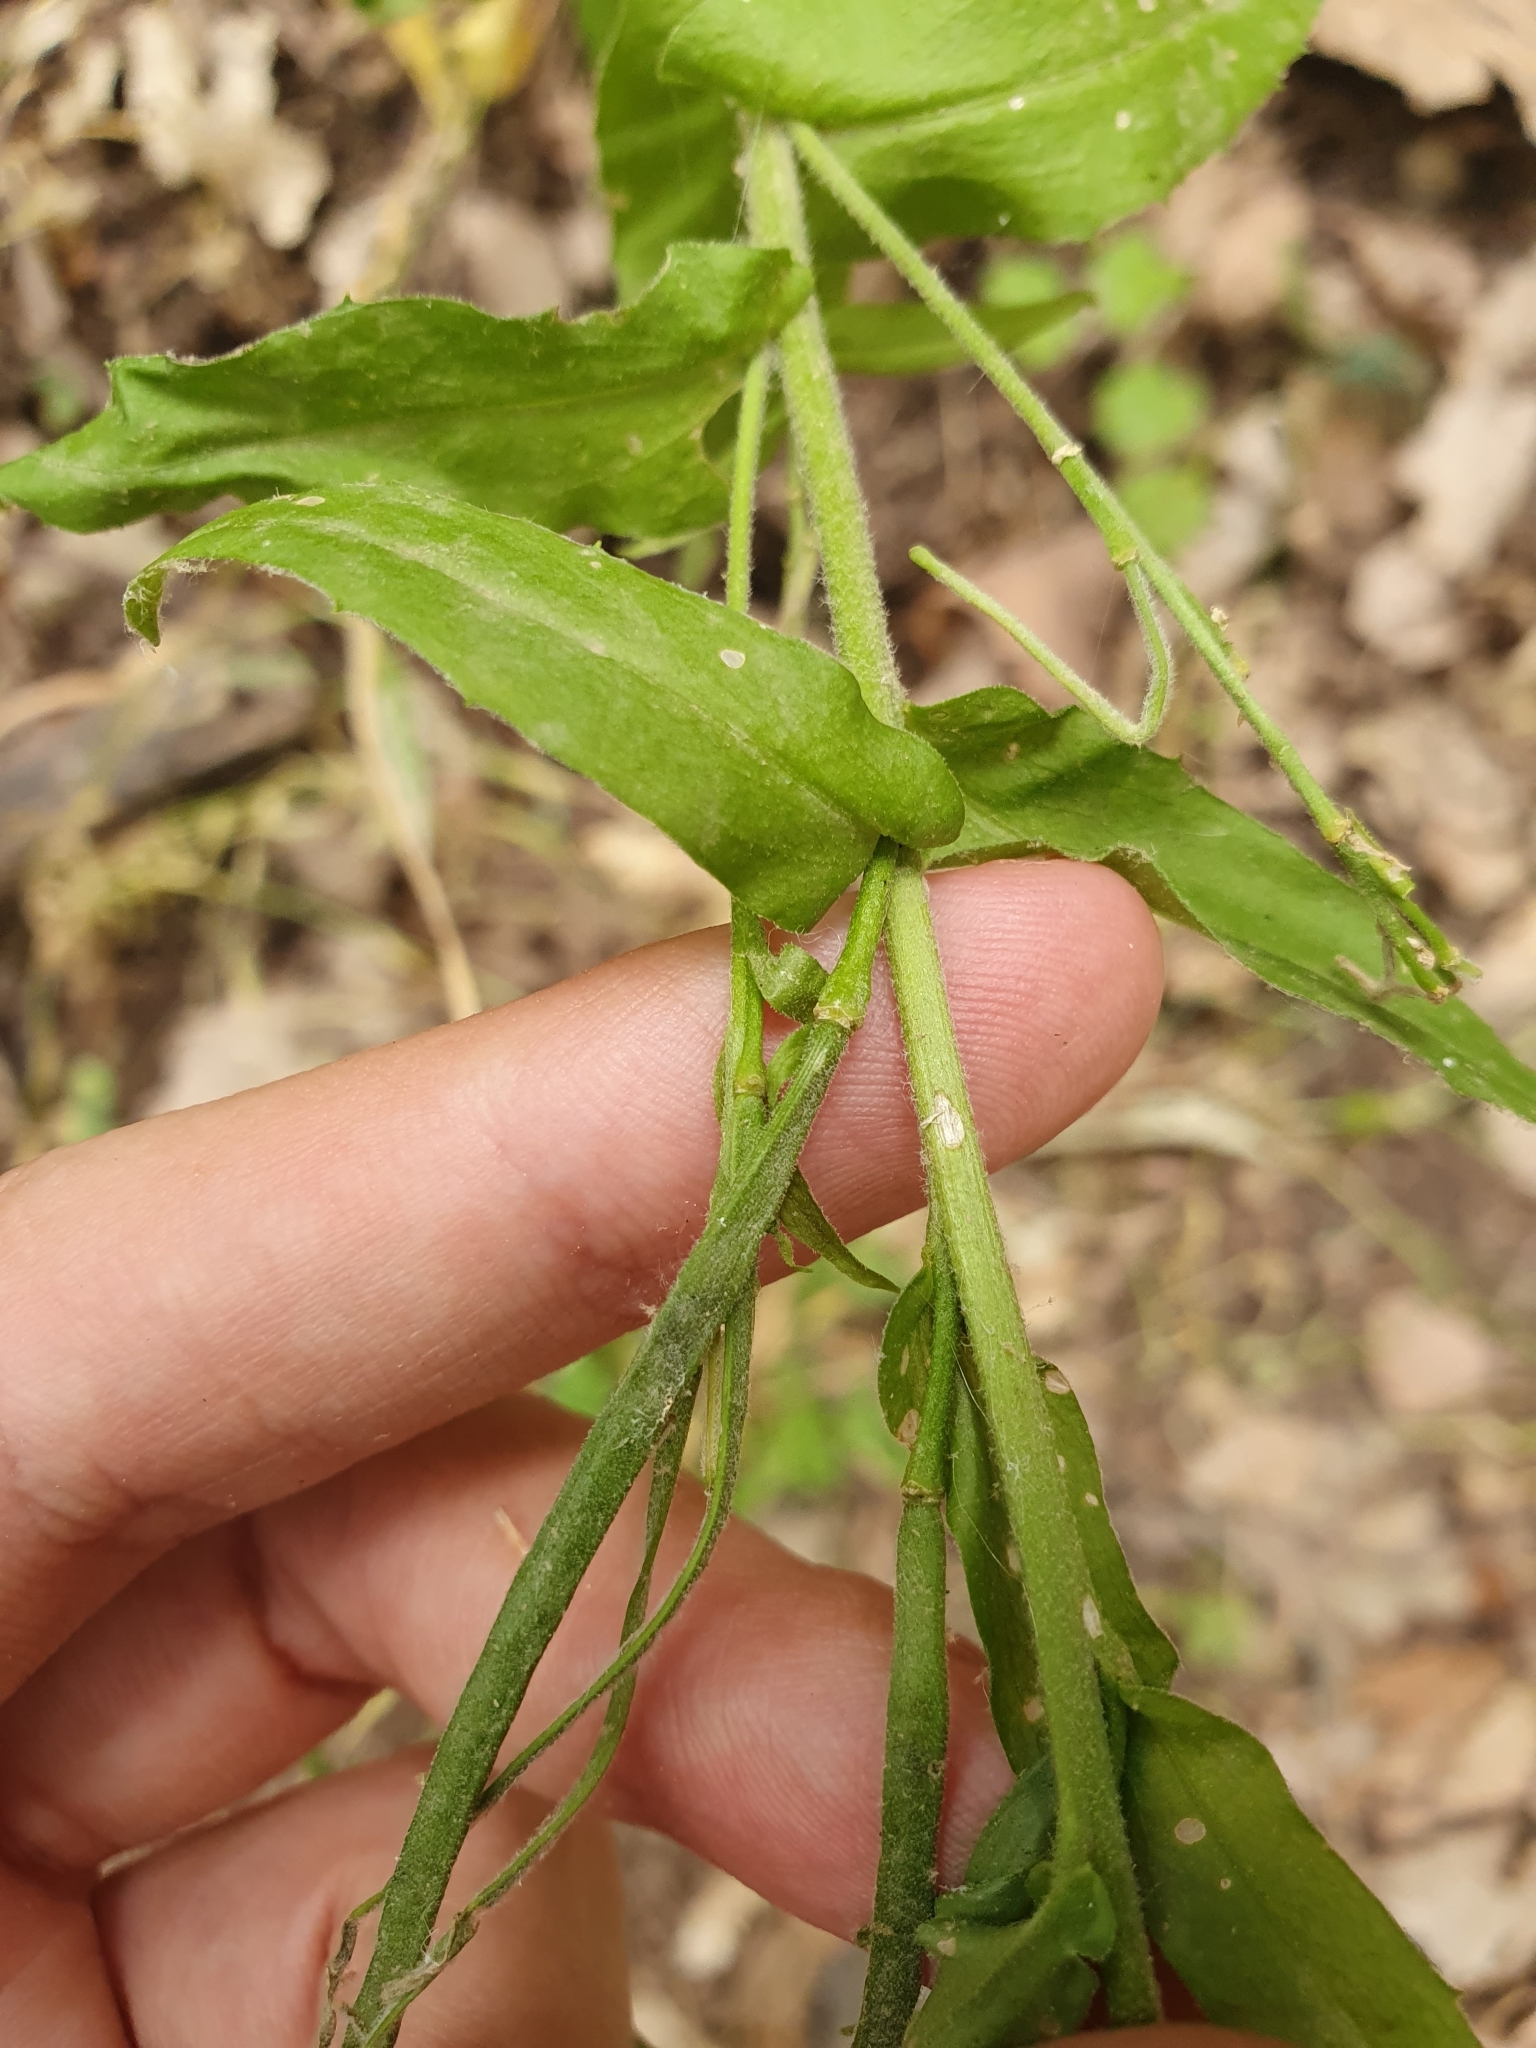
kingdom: Plantae
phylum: Tracheophyta
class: Magnoliopsida
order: Brassicales
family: Brassicaceae
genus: Pseudoturritis
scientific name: Pseudoturritis turrita
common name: Tower cress
